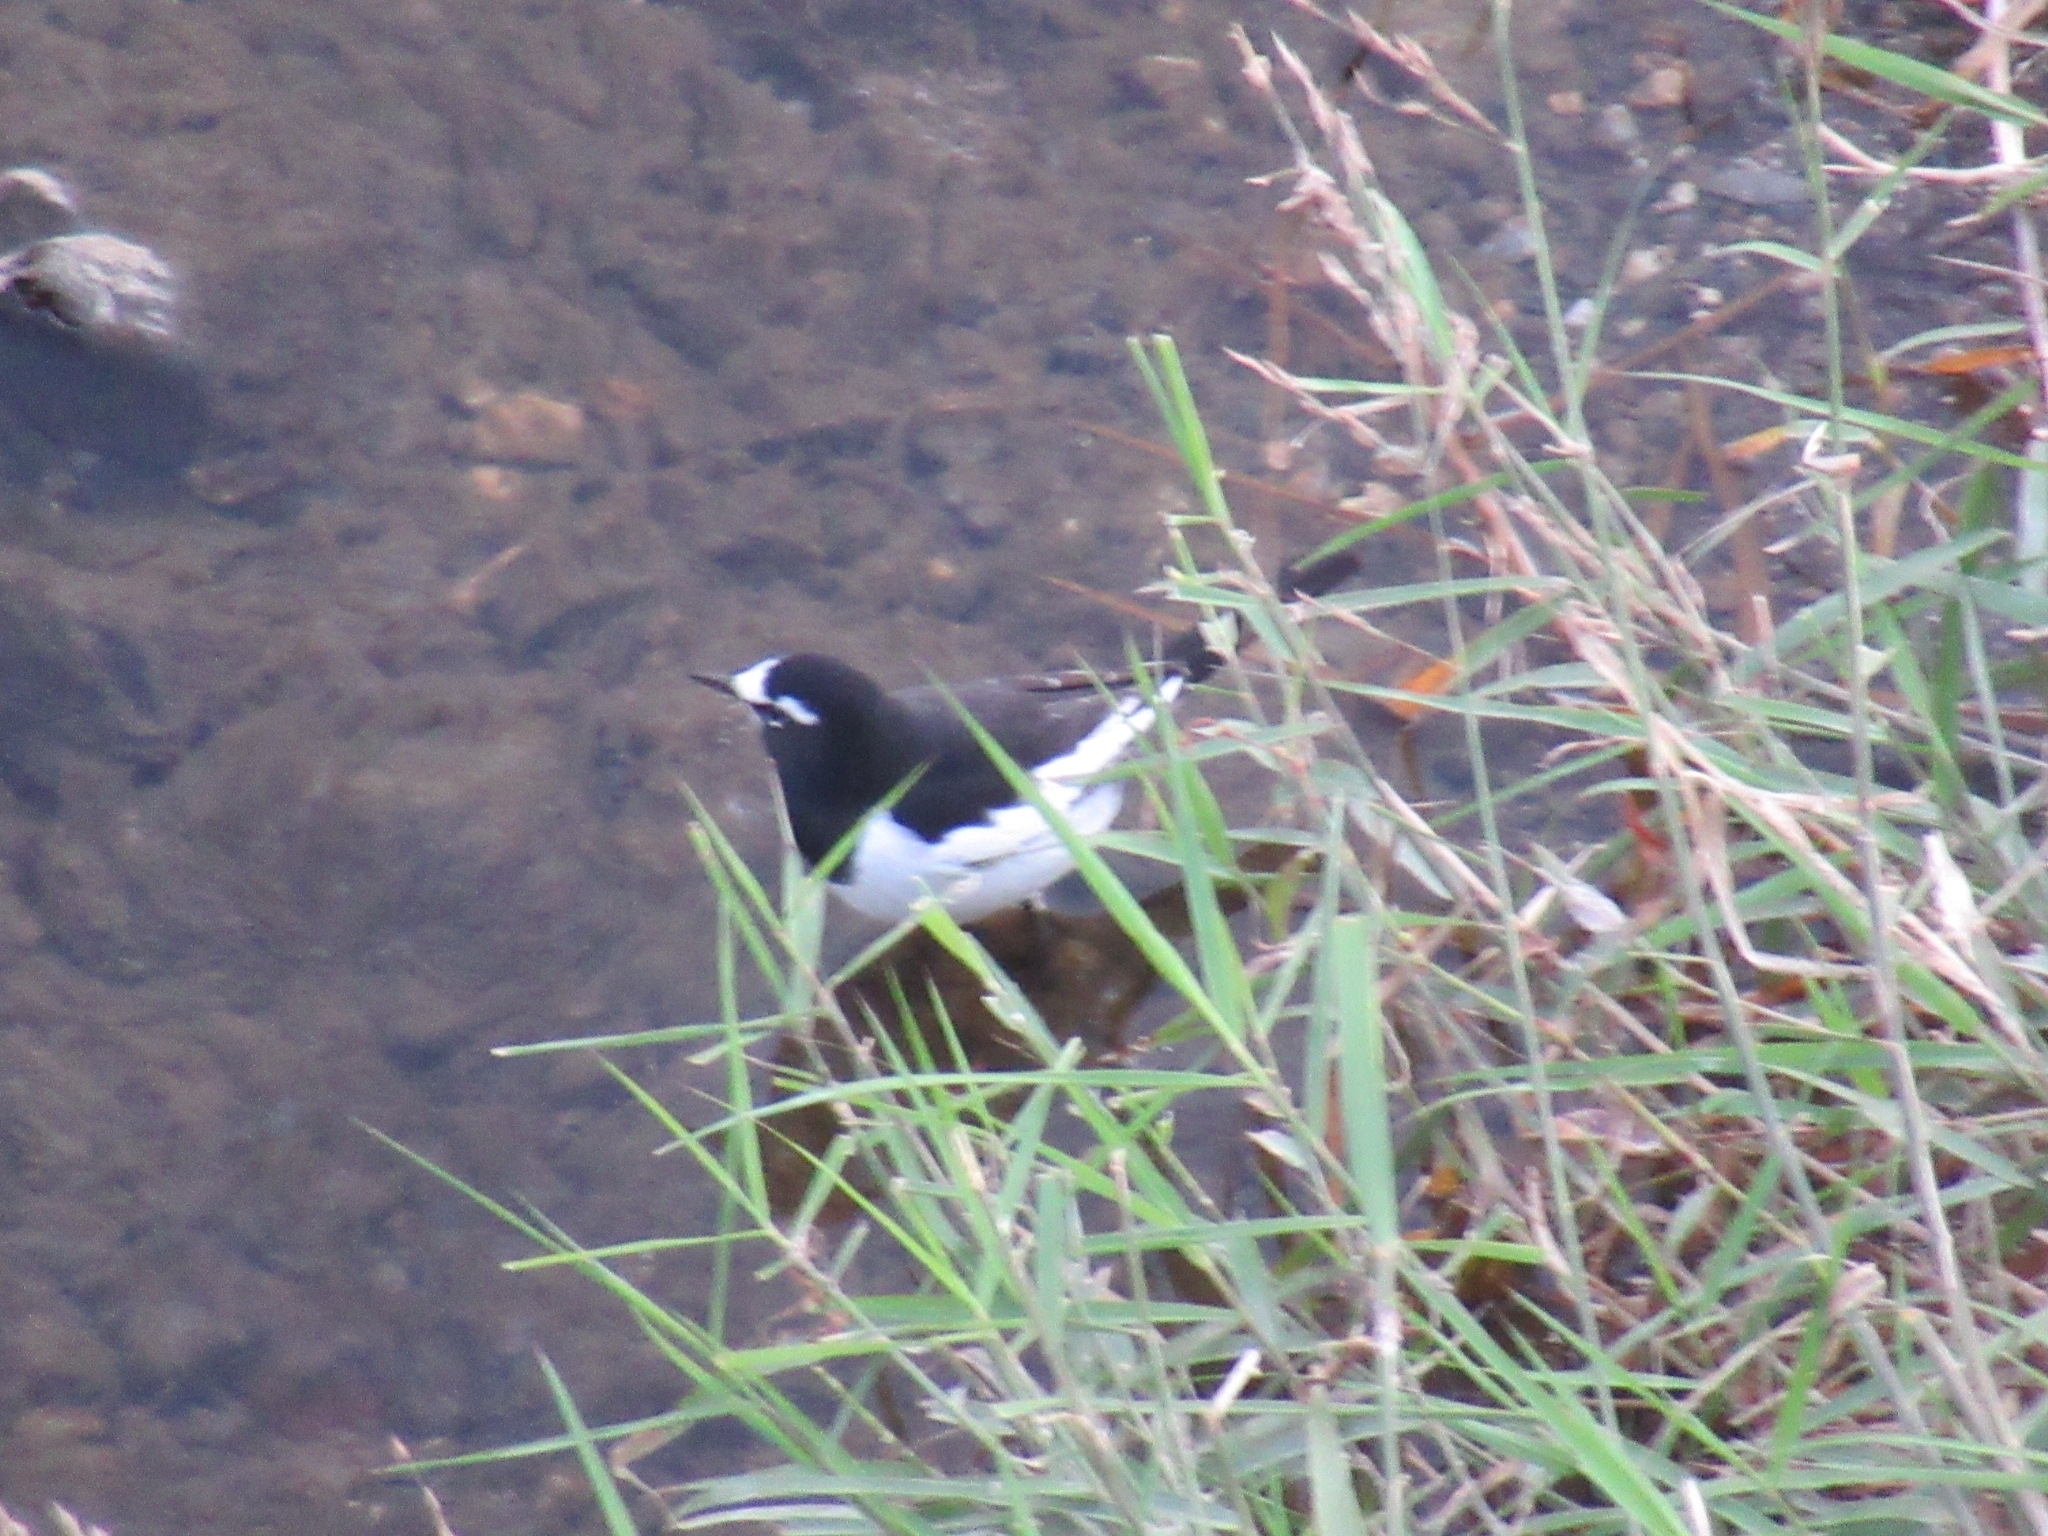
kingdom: Animalia
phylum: Chordata
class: Aves
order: Passeriformes
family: Motacillidae
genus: Motacilla
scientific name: Motacilla grandis
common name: Japanese wagtail
